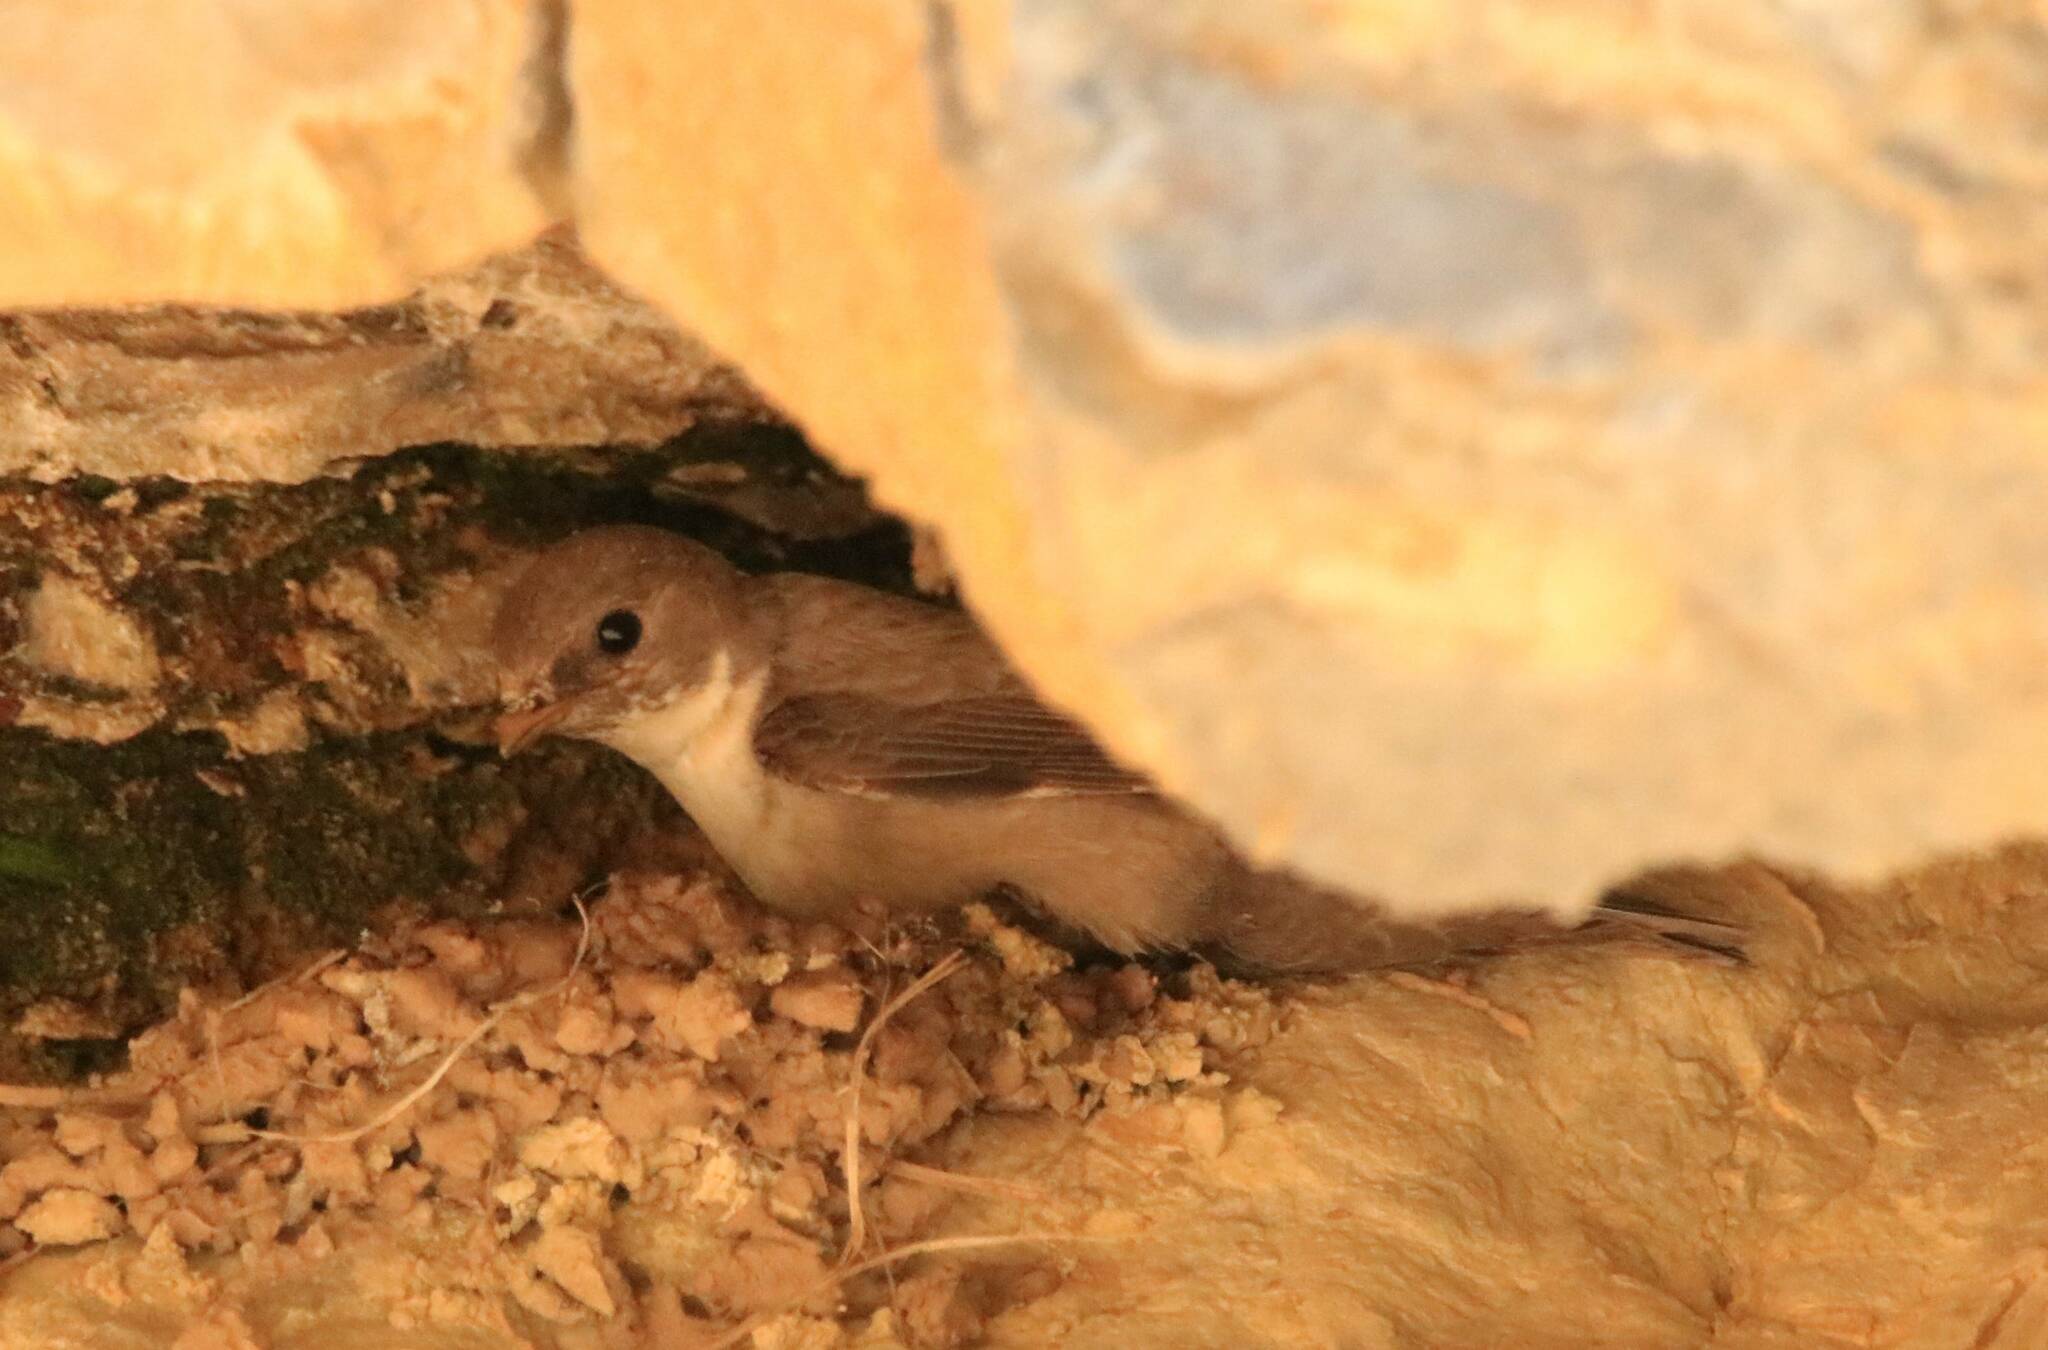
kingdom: Animalia
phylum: Chordata
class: Aves
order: Passeriformes
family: Hirundinidae
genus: Ptyonoprogne
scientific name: Ptyonoprogne rupestris
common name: Eurasian crag martin
